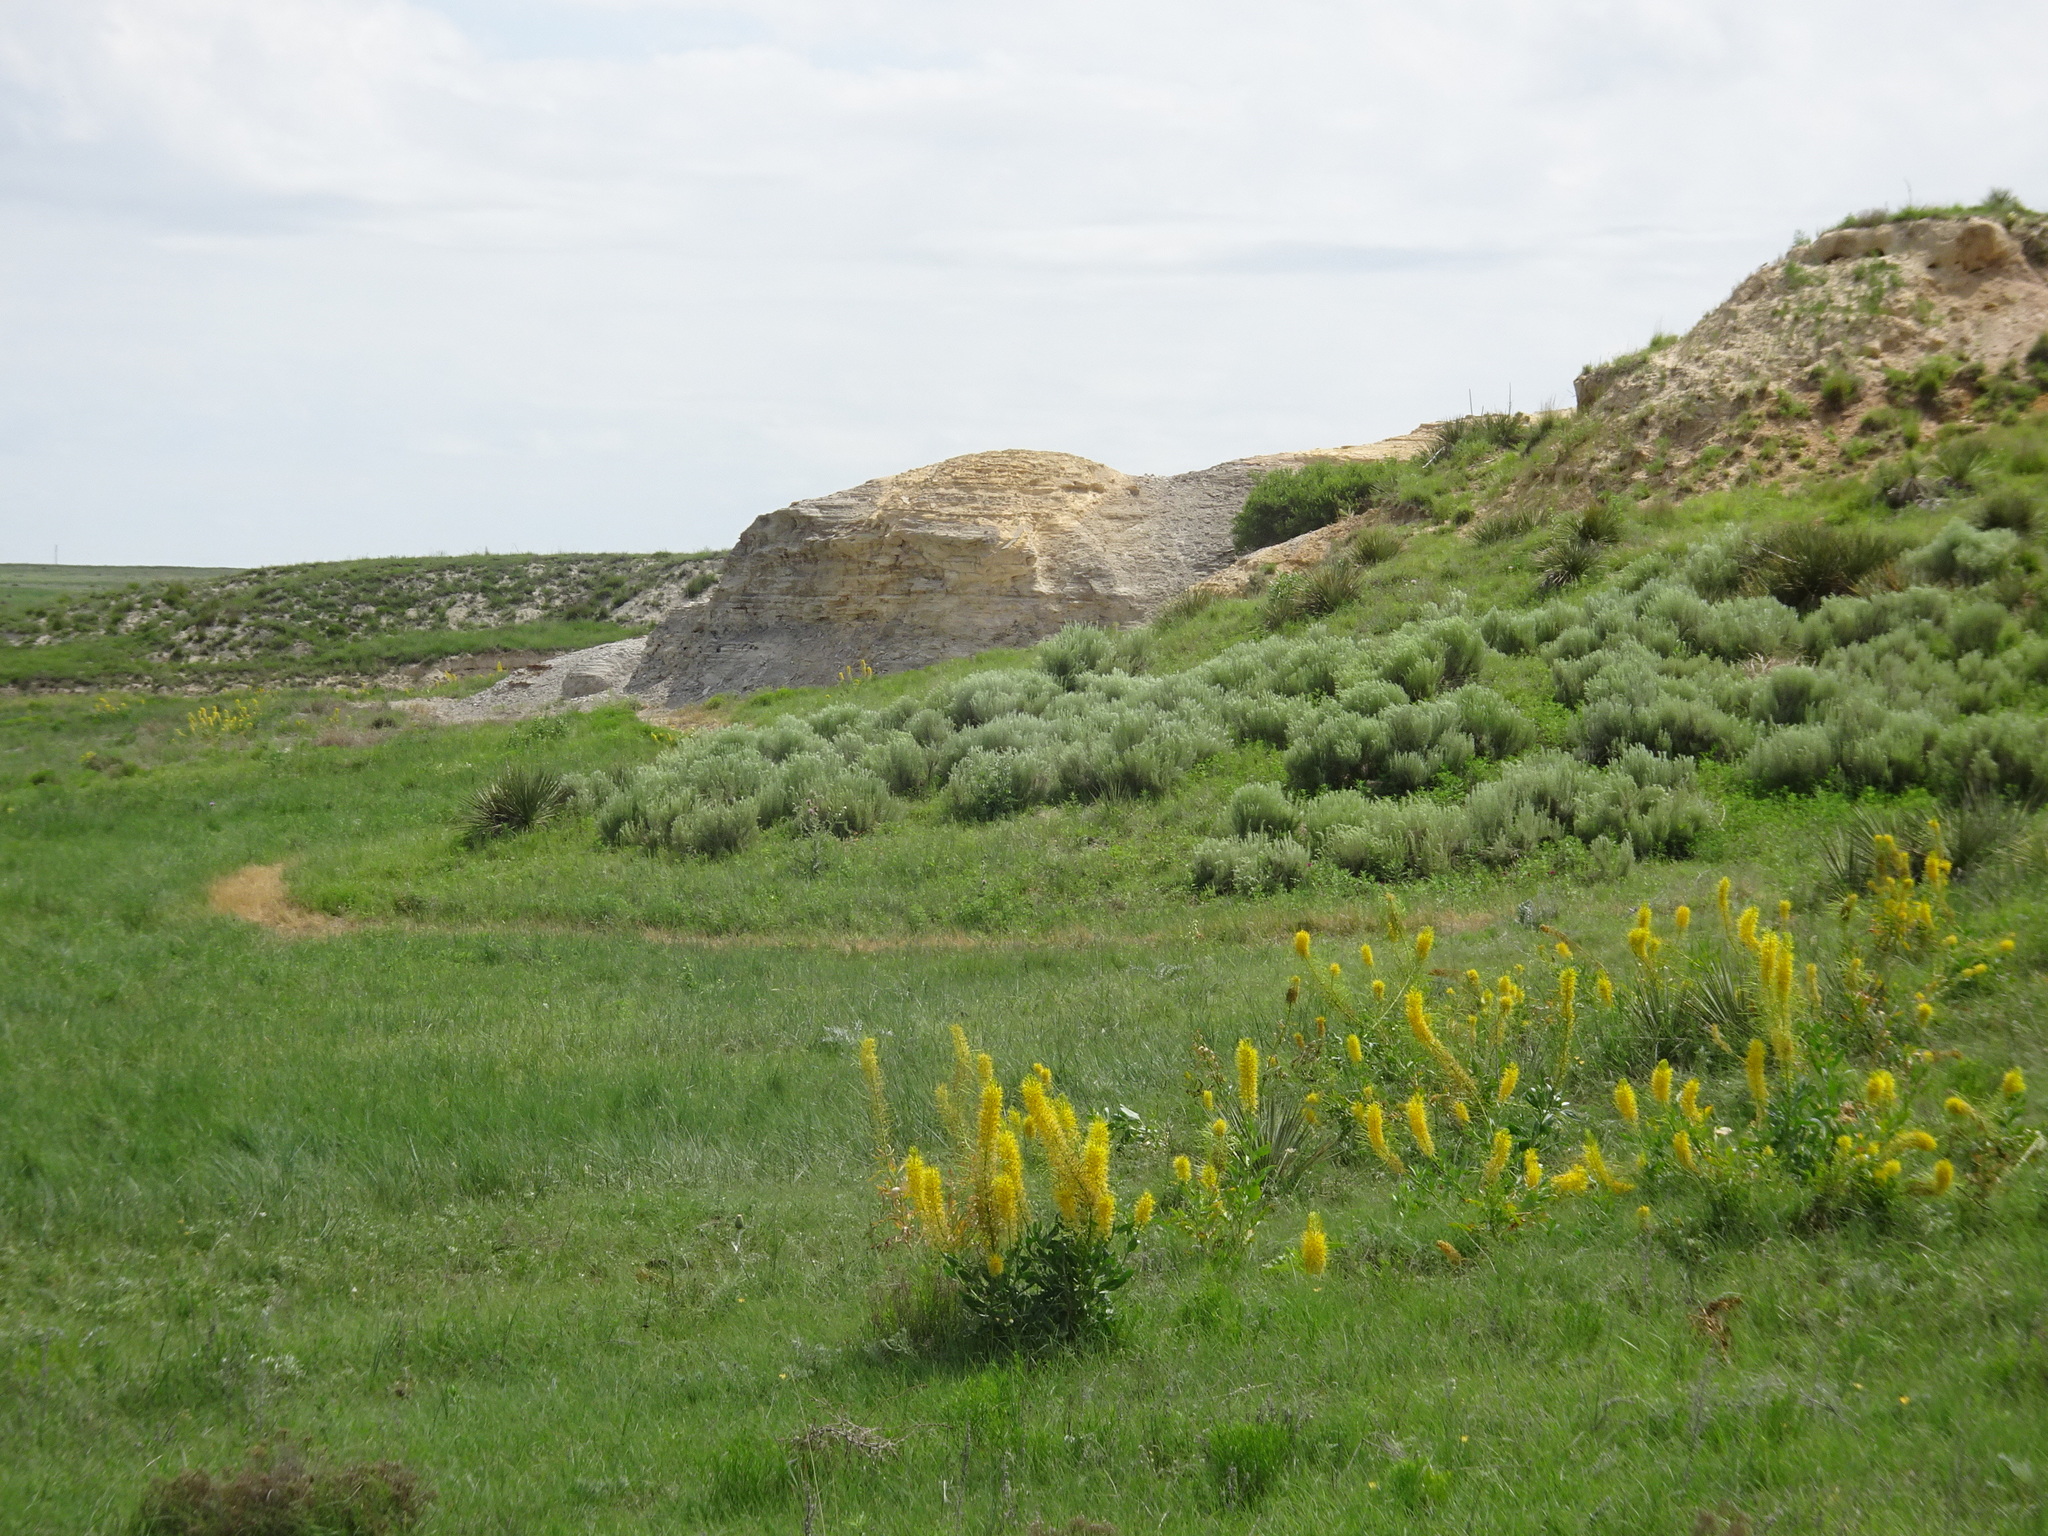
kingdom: Plantae
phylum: Tracheophyta
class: Magnoliopsida
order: Asterales
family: Asteraceae
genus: Artemisia
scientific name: Artemisia filifolia
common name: Sand-sage
